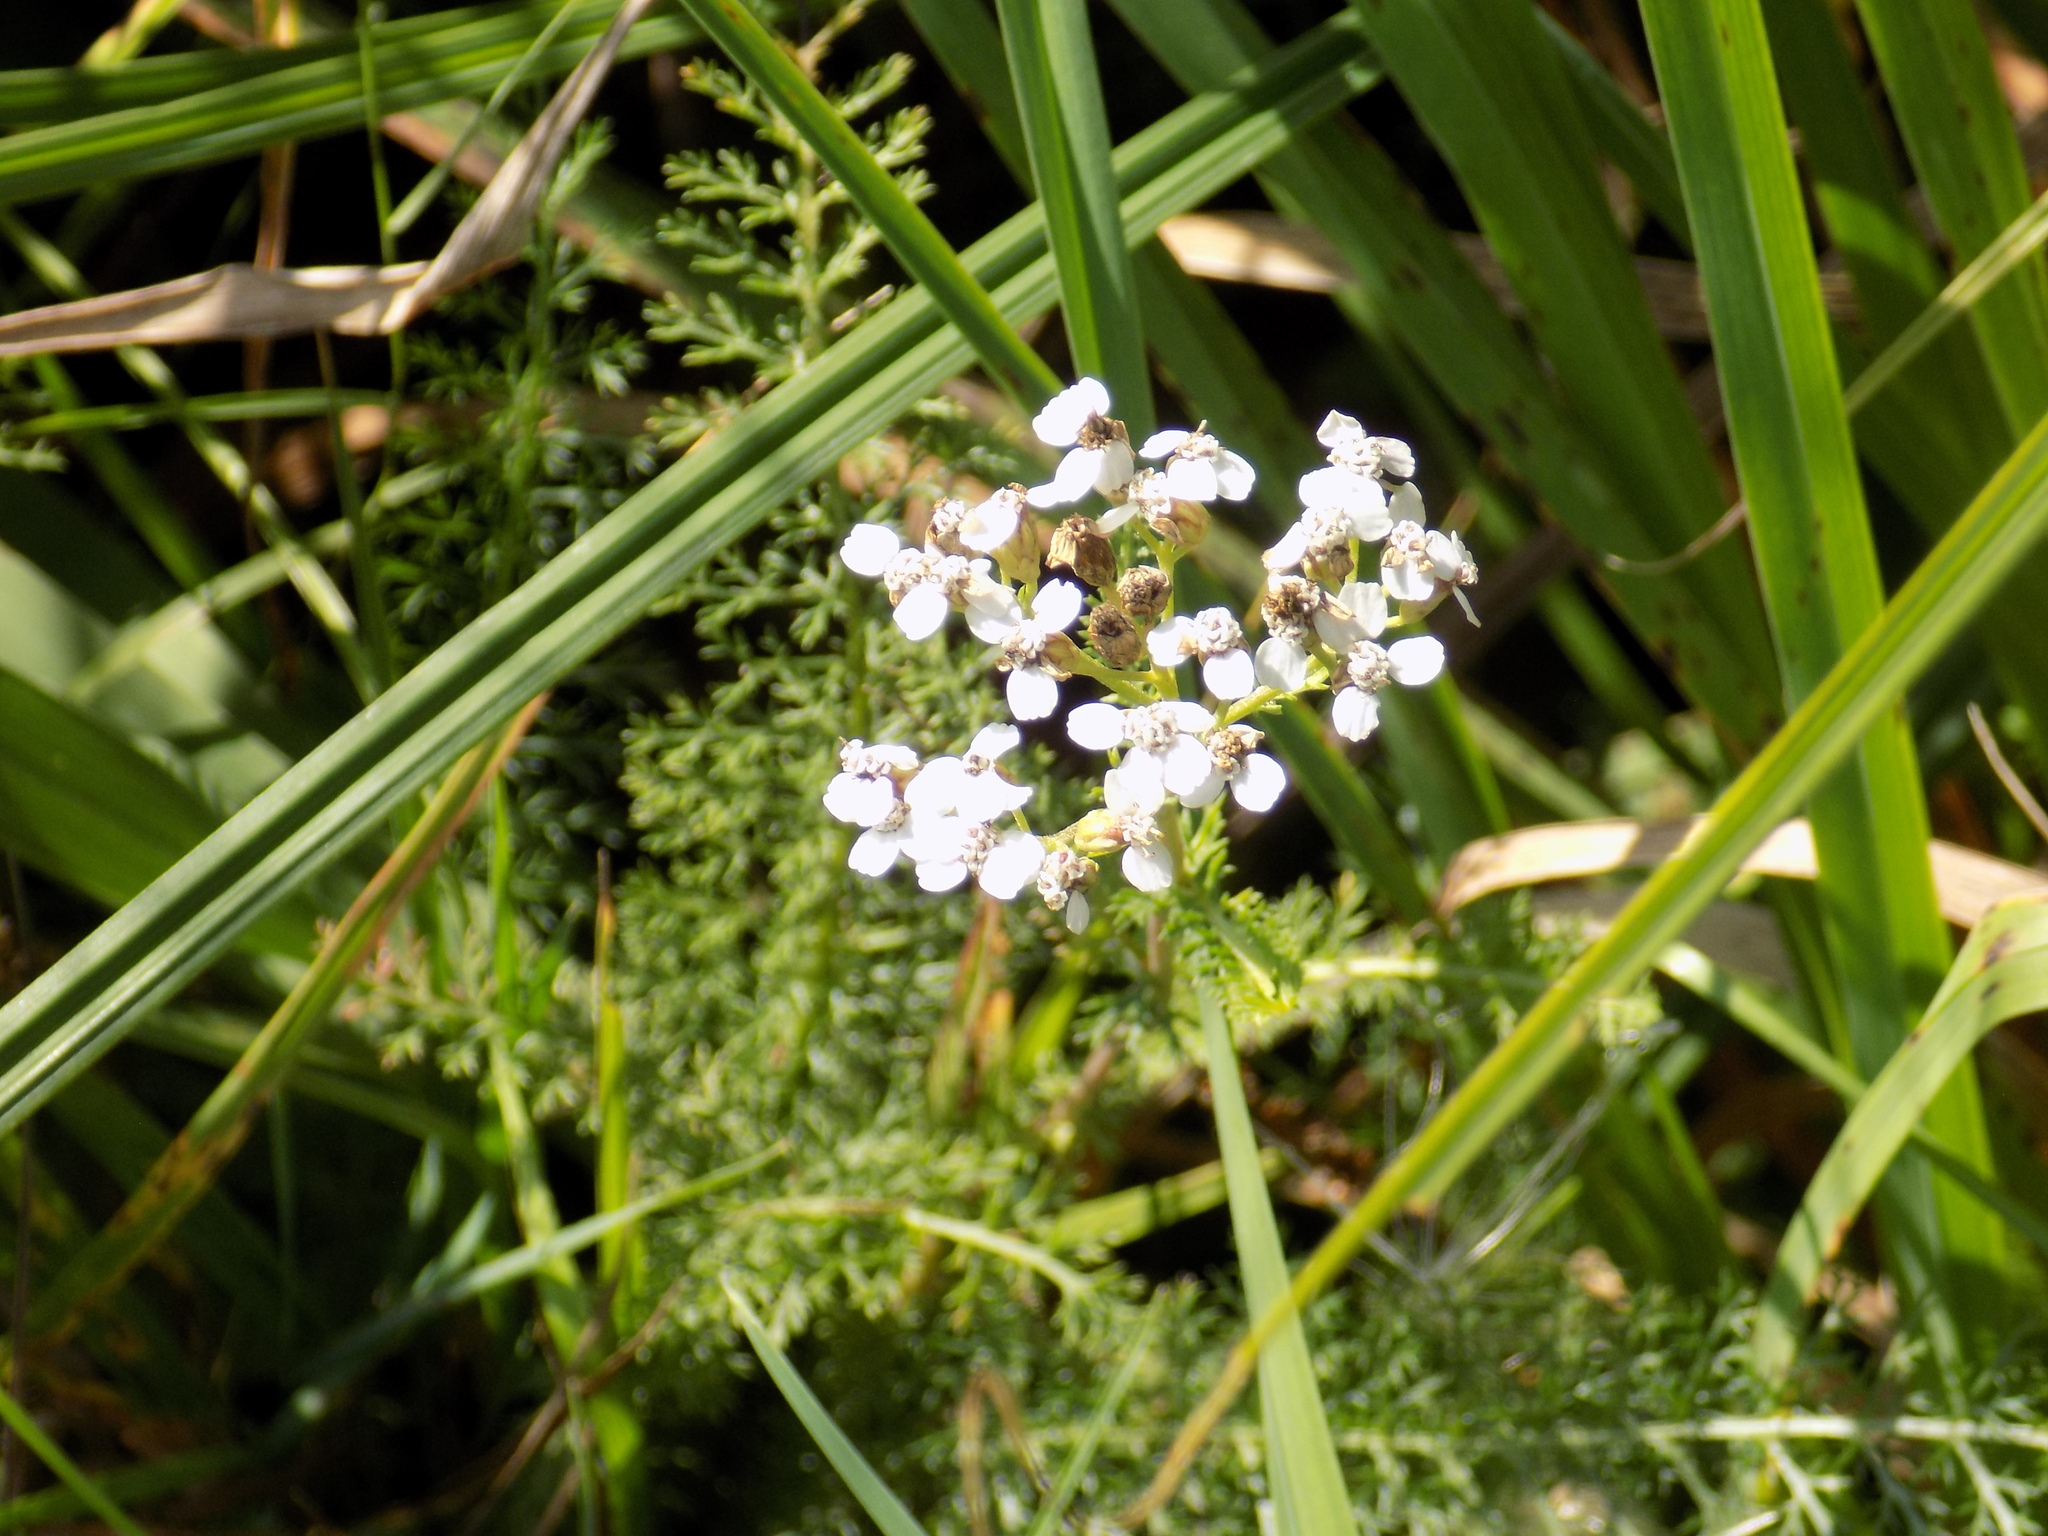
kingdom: Plantae
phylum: Tracheophyta
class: Magnoliopsida
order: Asterales
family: Asteraceae
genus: Achillea
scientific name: Achillea millefolium
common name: Yarrow
